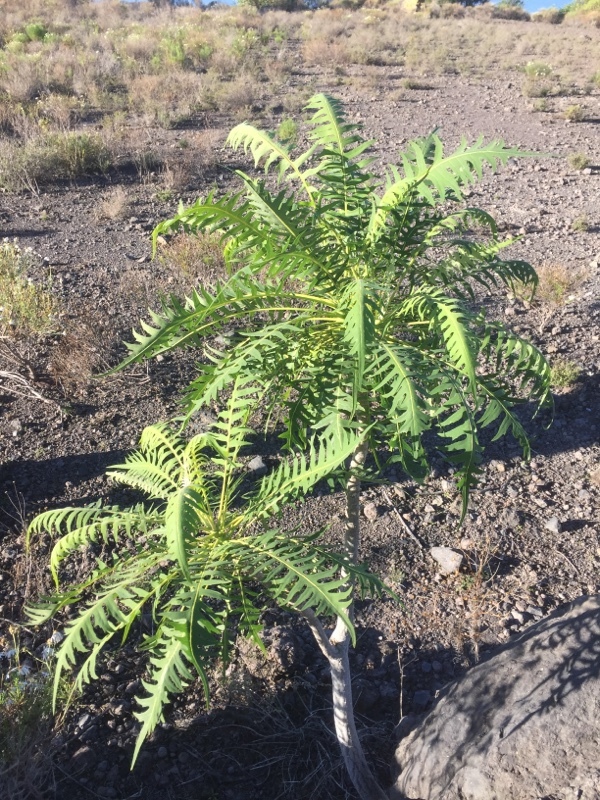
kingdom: Plantae
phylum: Tracheophyta
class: Magnoliopsida
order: Asterales
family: Asteraceae
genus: Sonchus
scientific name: Sonchus canariensis
